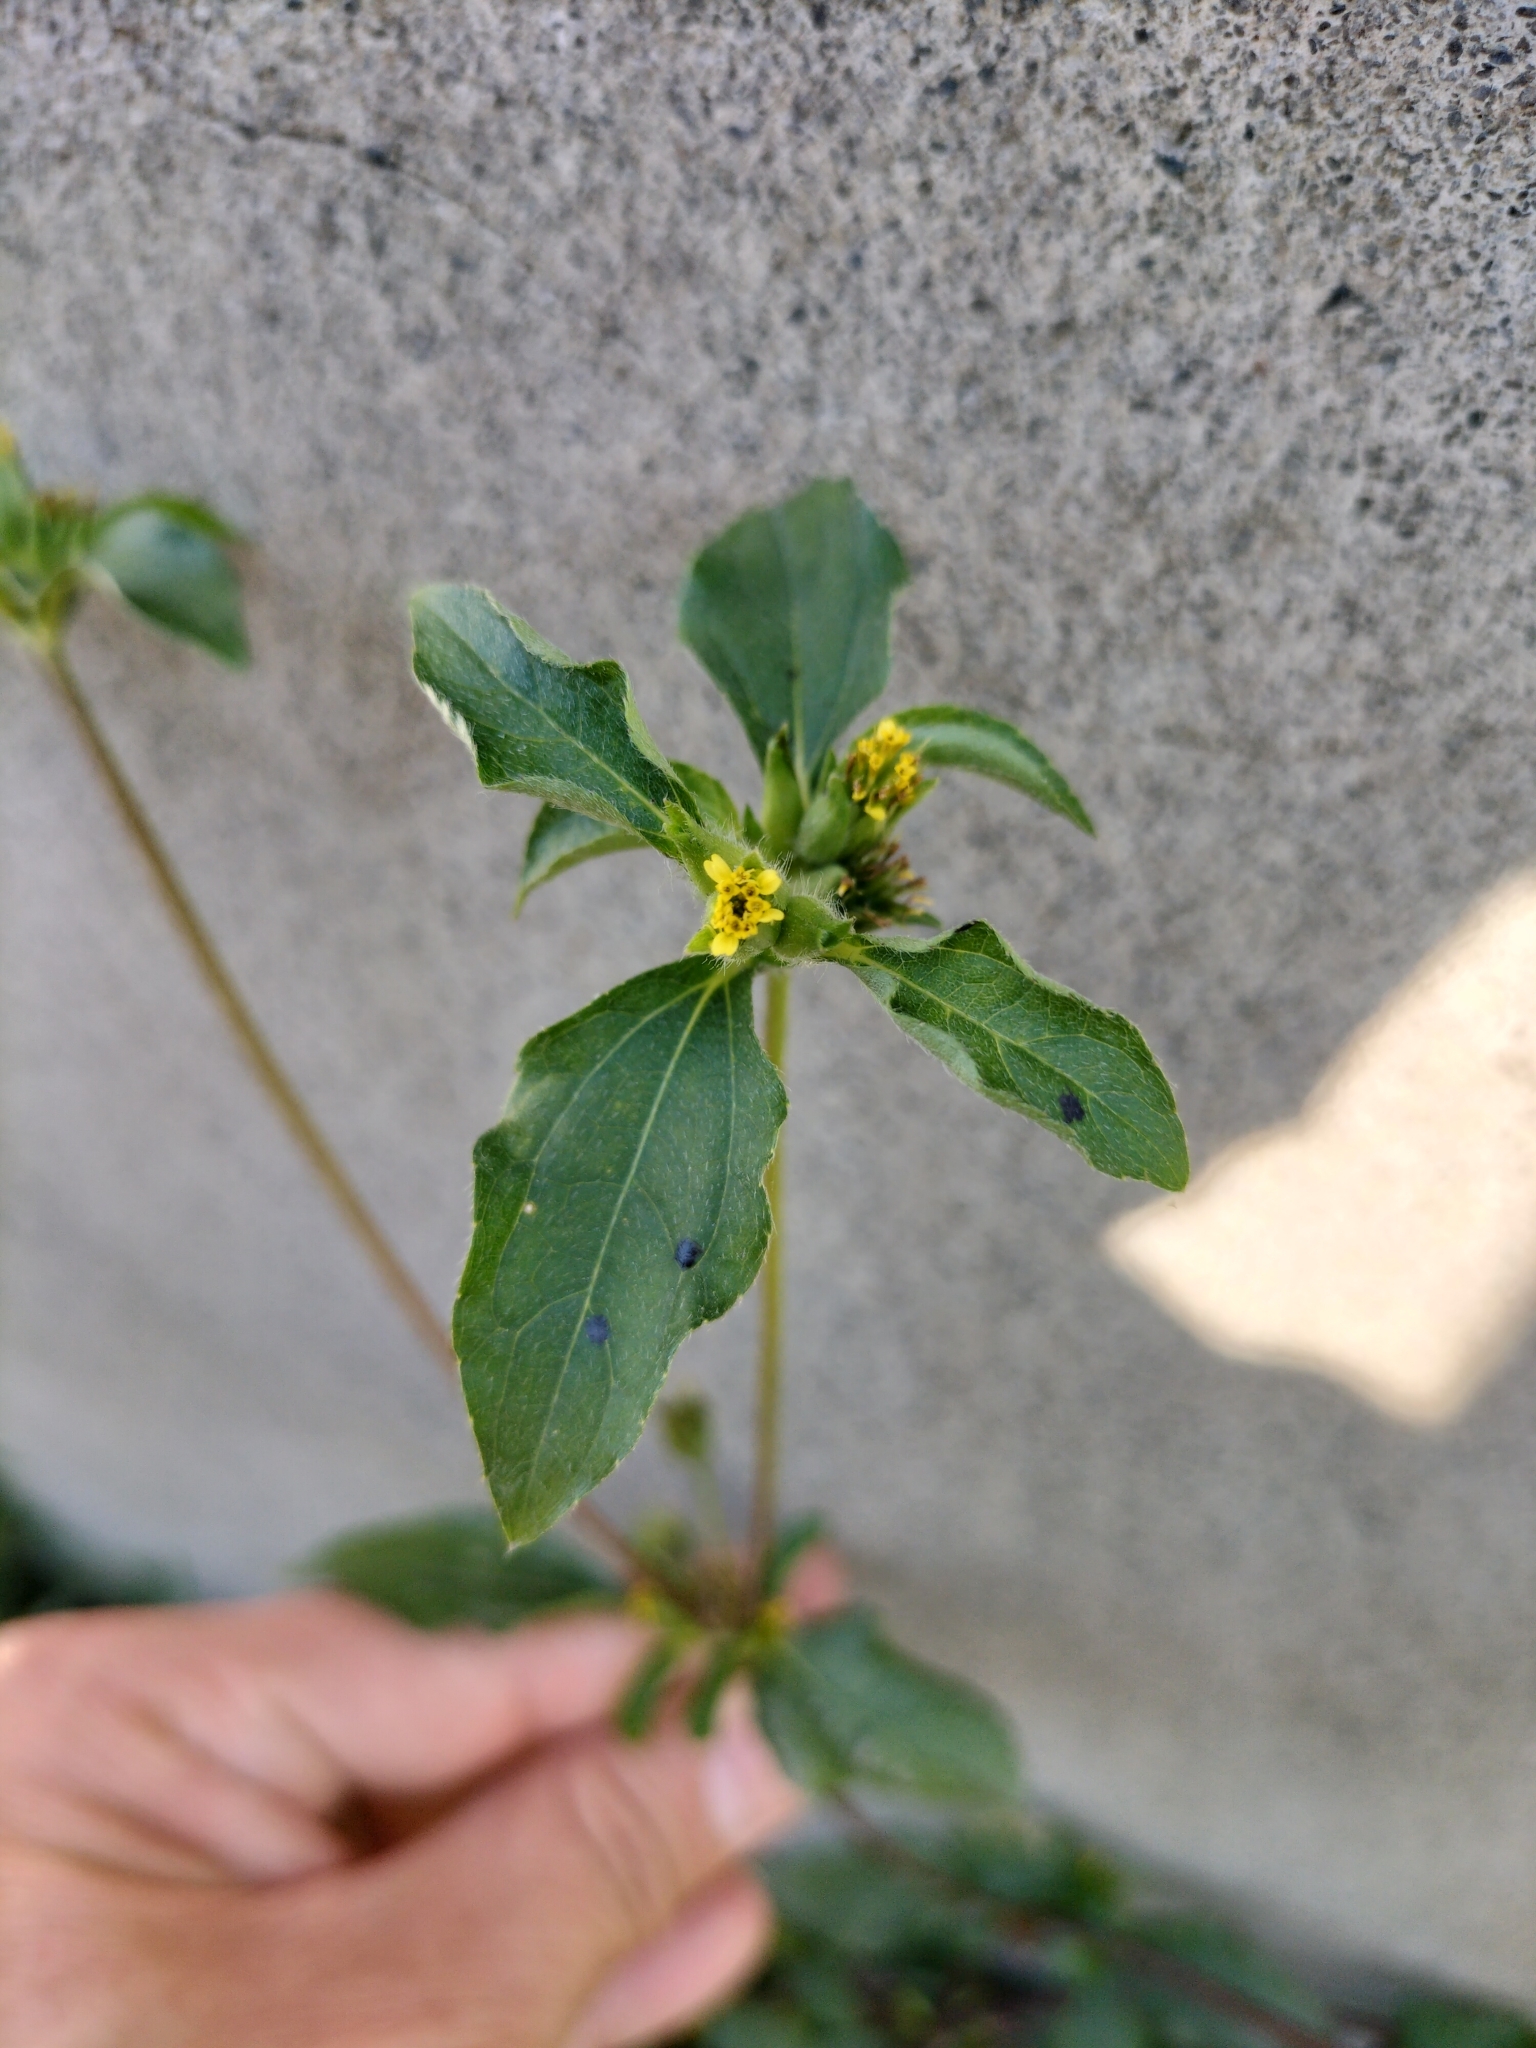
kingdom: Plantae
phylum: Tracheophyta
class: Magnoliopsida
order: Asterales
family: Asteraceae
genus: Synedrella
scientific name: Synedrella nodiflora
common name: Nodeweed
